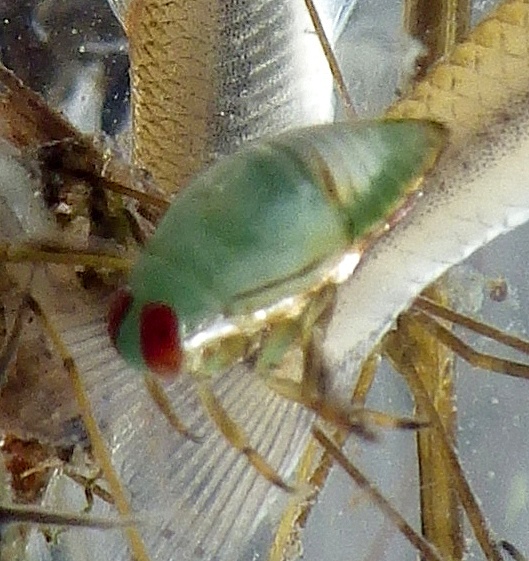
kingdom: Animalia
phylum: Arthropoda
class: Insecta
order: Hemiptera
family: Notonectidae
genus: Notonecta
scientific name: Notonecta
